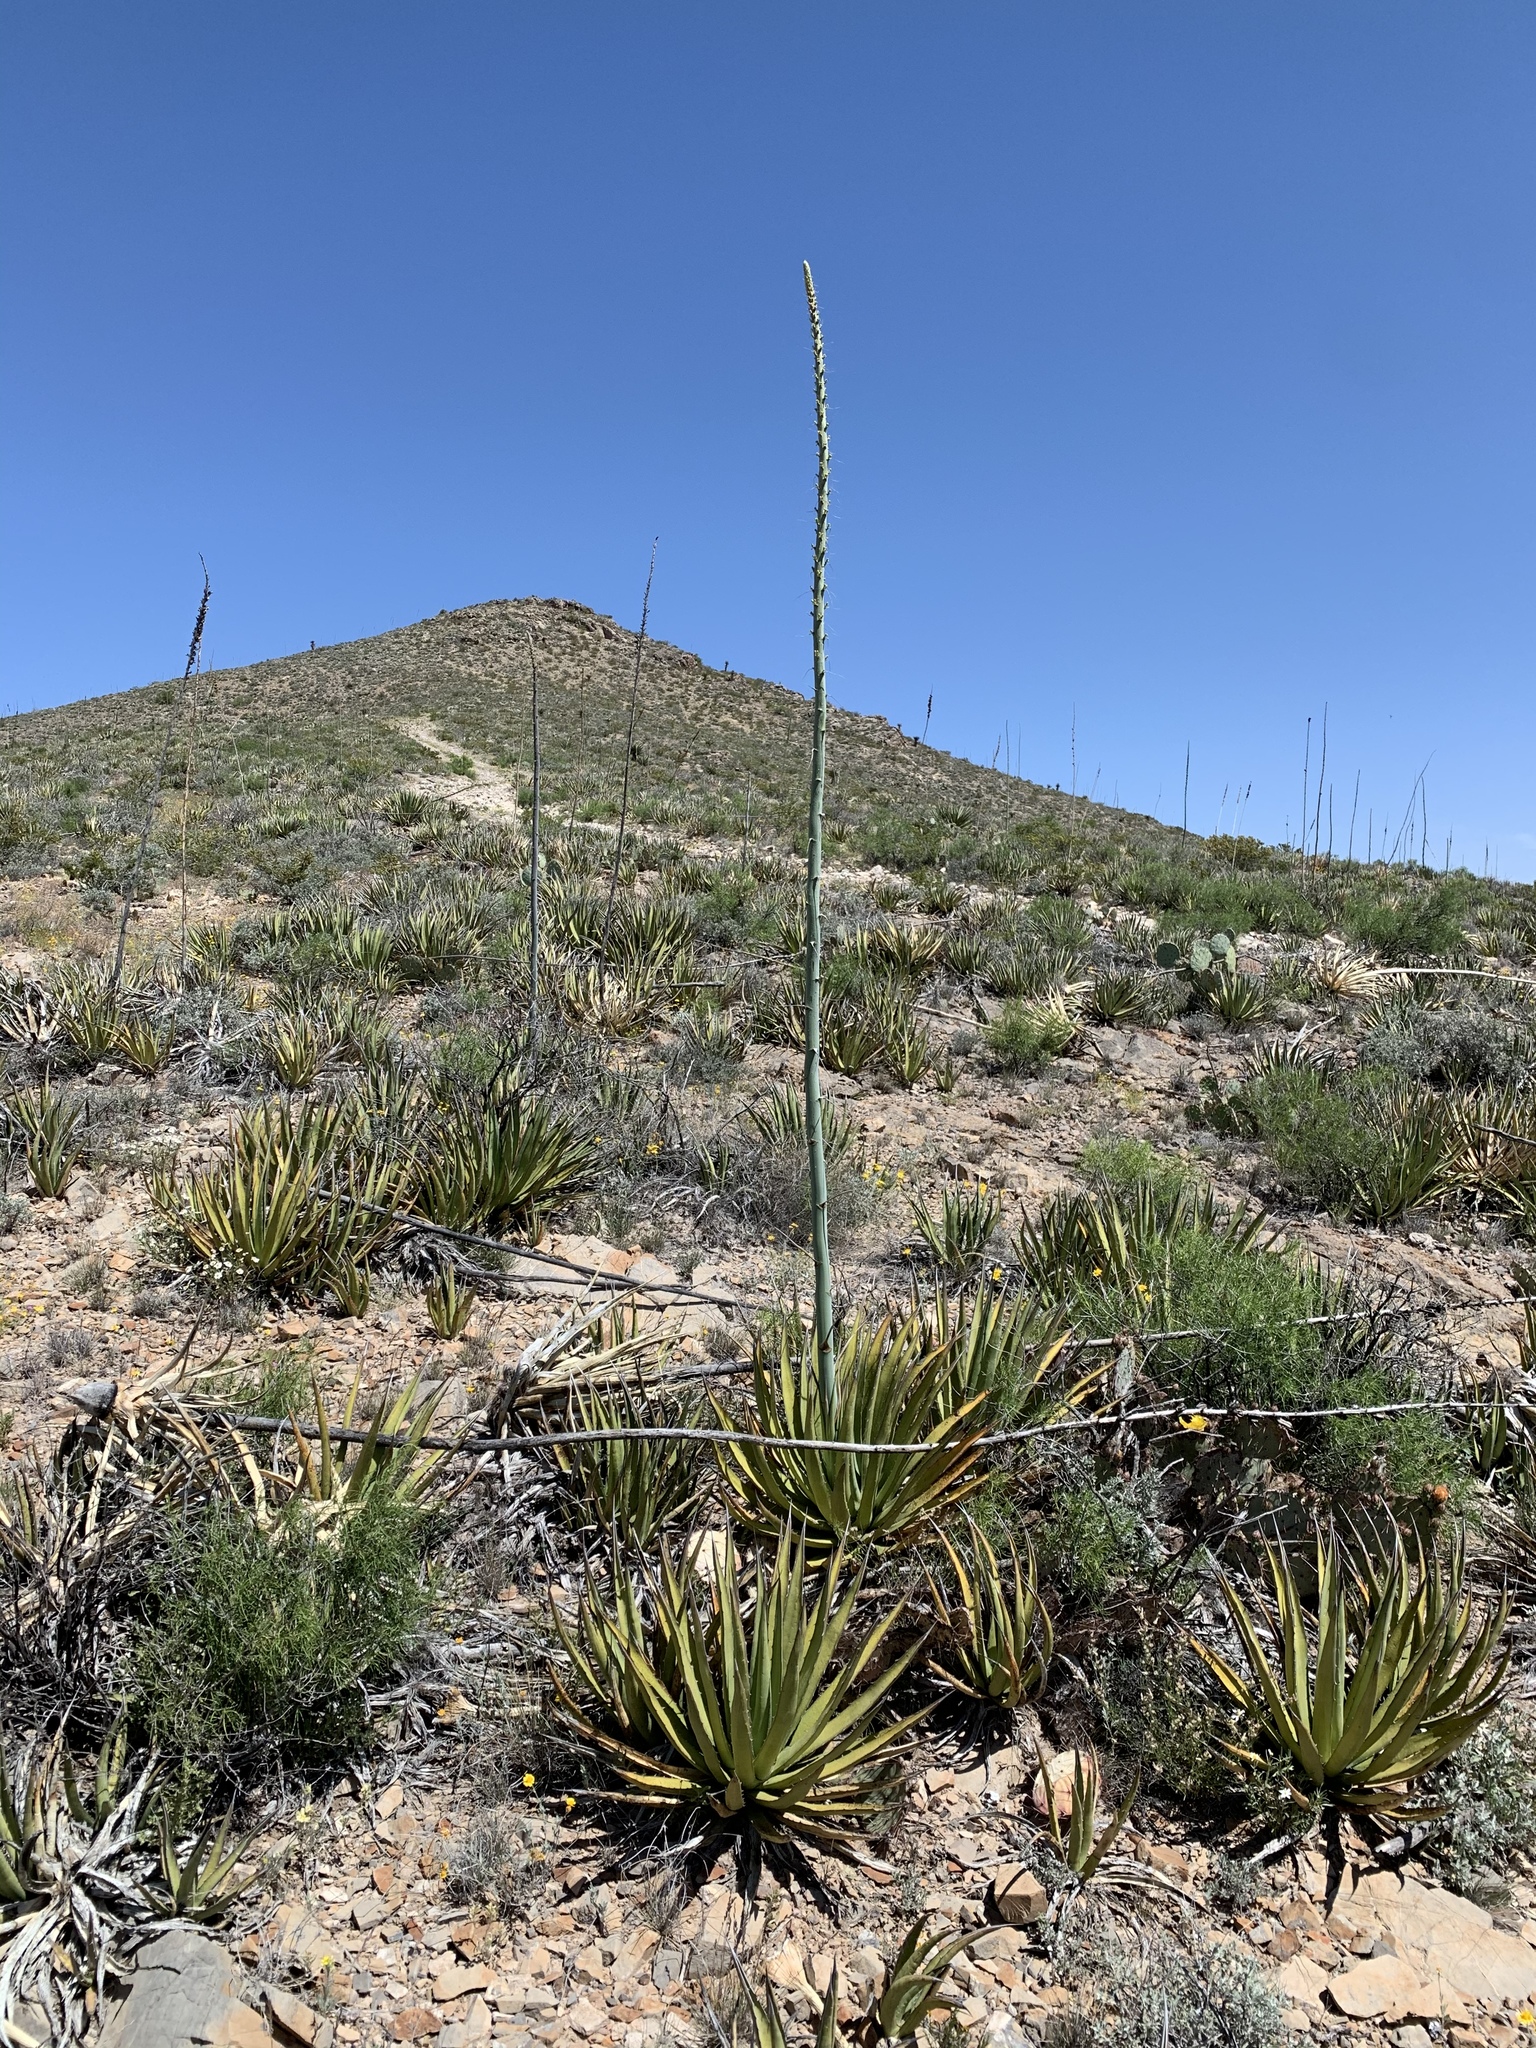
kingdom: Plantae
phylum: Tracheophyta
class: Liliopsida
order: Asparagales
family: Asparagaceae
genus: Agave
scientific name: Agave lechuguilla
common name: Lecheguilla agave
